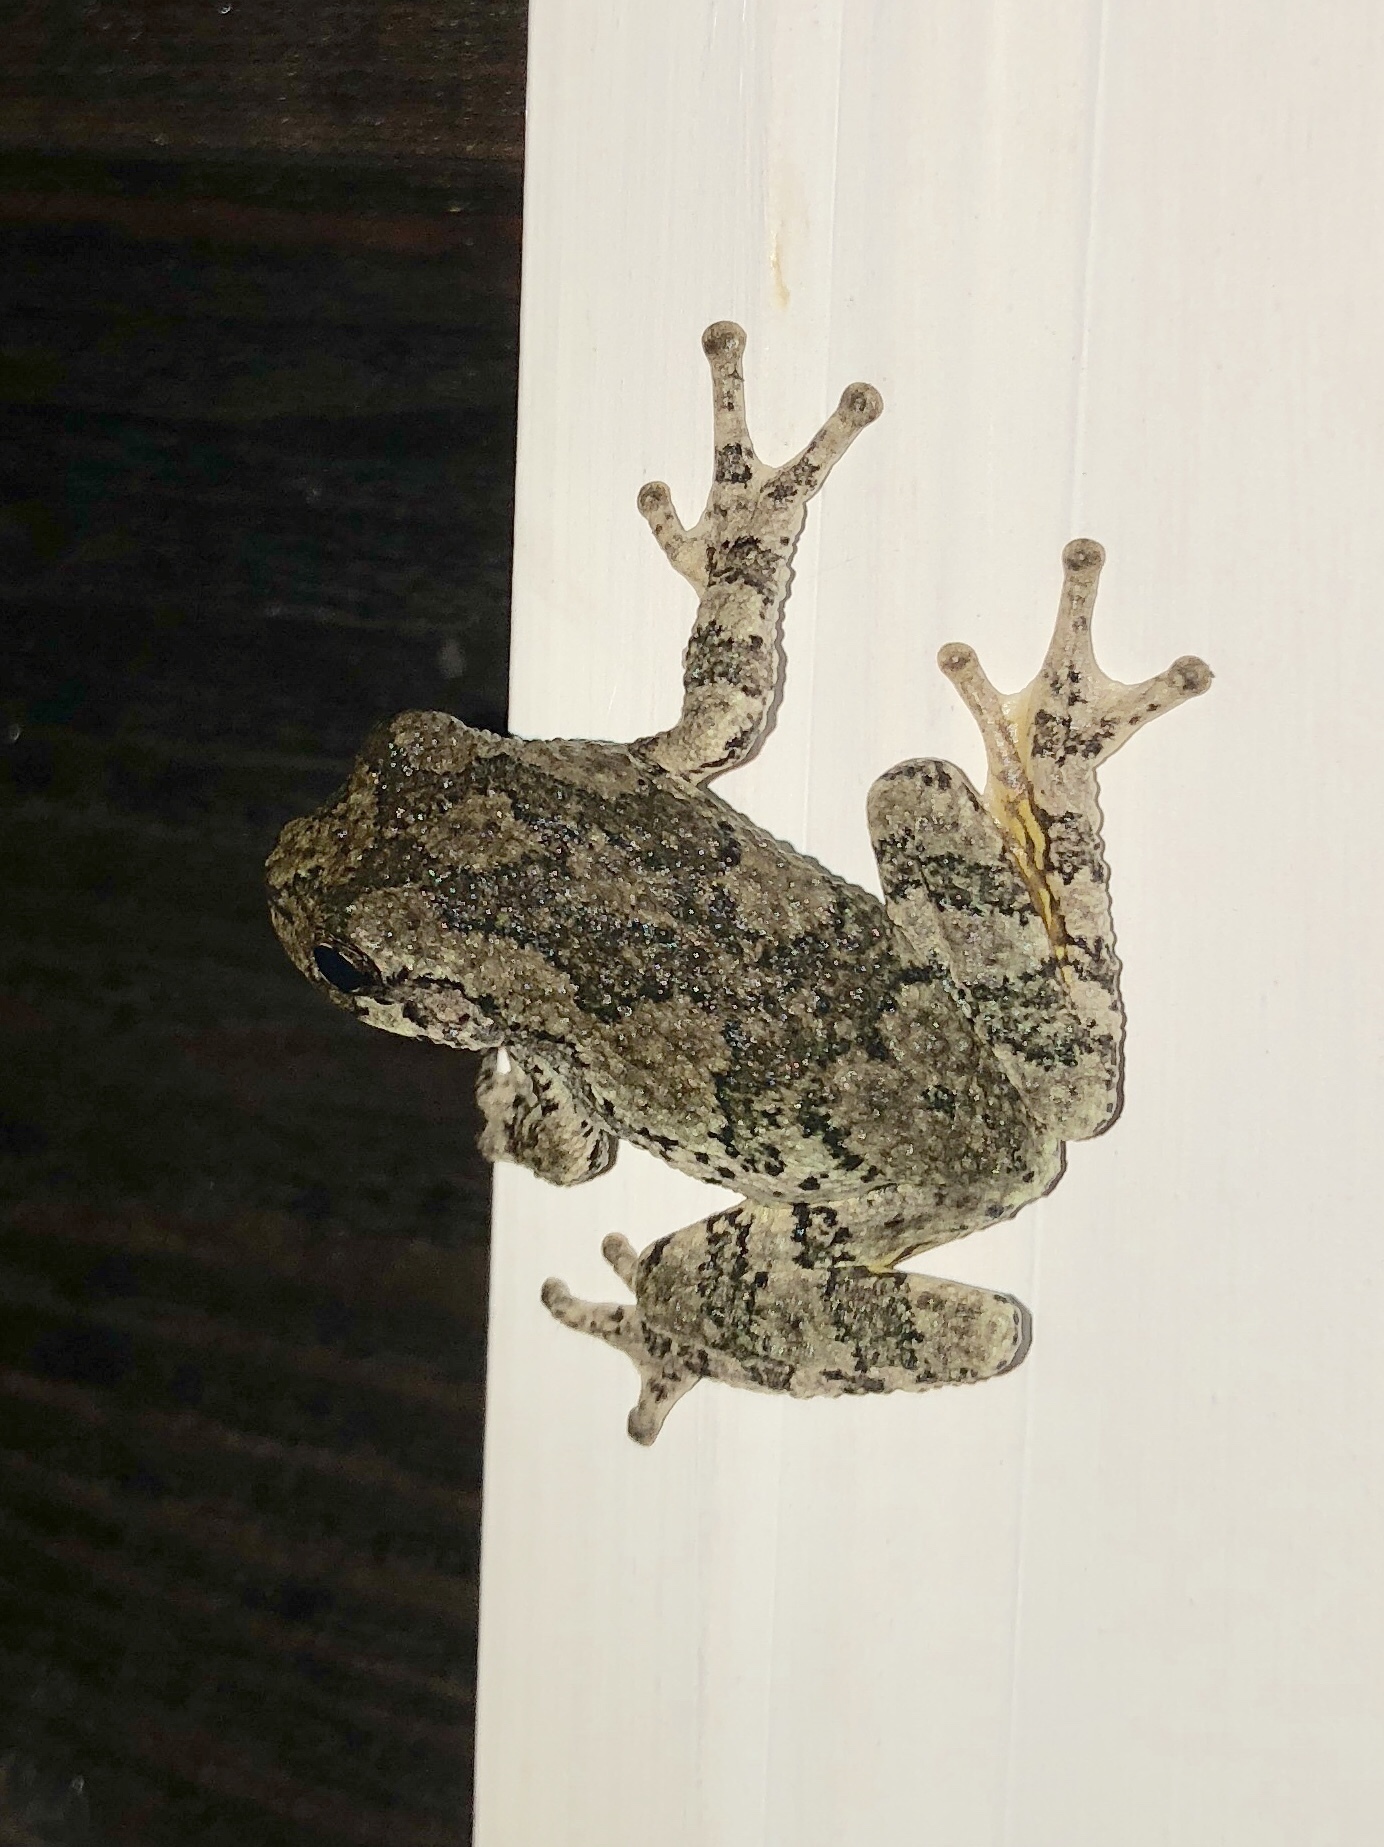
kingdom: Animalia
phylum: Chordata
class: Amphibia
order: Anura
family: Hylidae
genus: Dryophytes
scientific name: Dryophytes versicolor
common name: Gray treefrog
